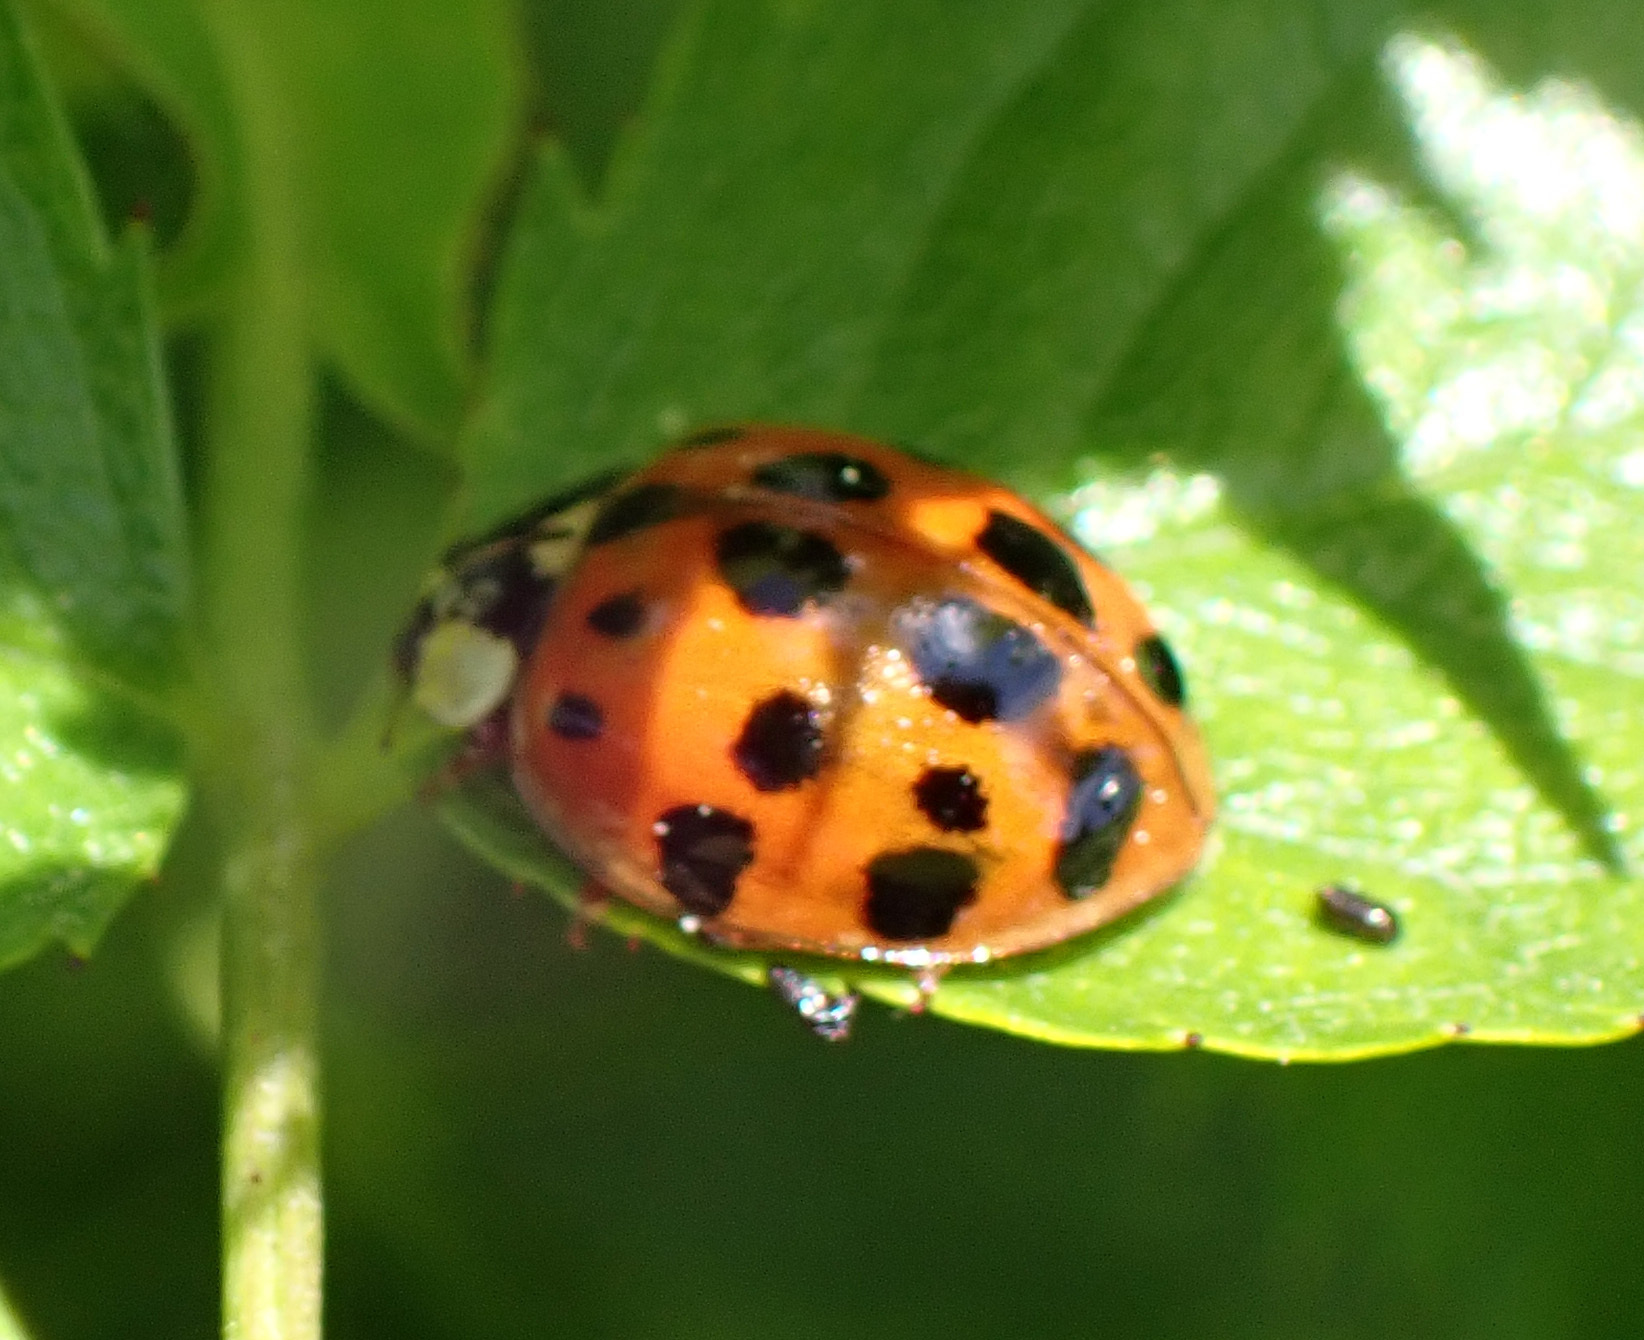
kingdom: Animalia
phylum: Arthropoda
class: Insecta
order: Coleoptera
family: Coccinellidae
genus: Harmonia
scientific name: Harmonia axyridis
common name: Harlequin ladybird
